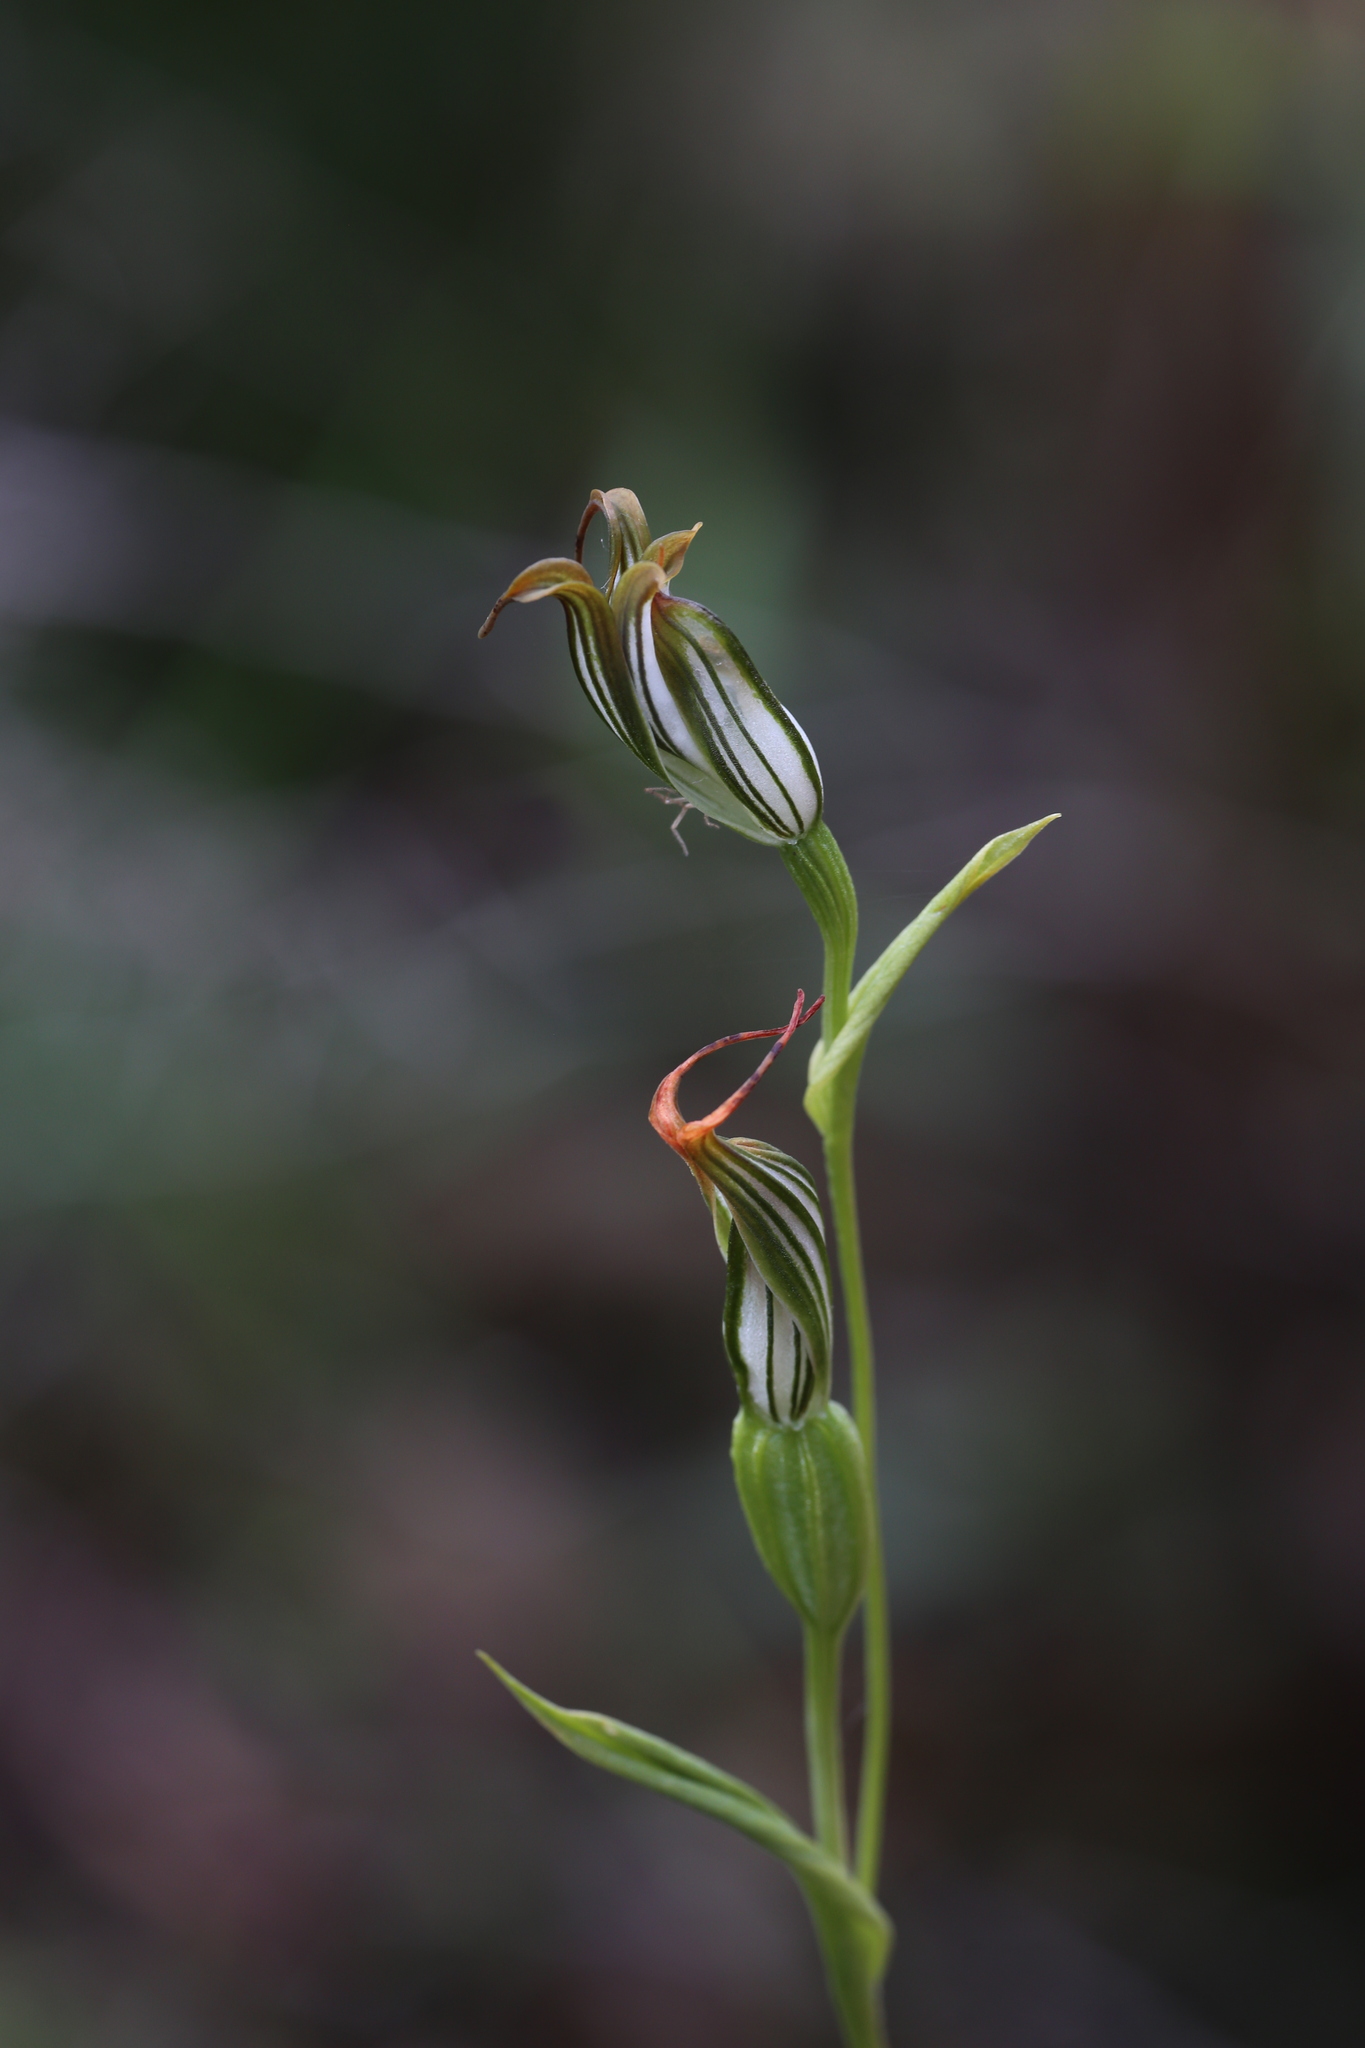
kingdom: Plantae
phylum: Tracheophyta
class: Liliopsida
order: Asparagales
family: Orchidaceae
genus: Pterostylis
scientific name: Pterostylis recurva
